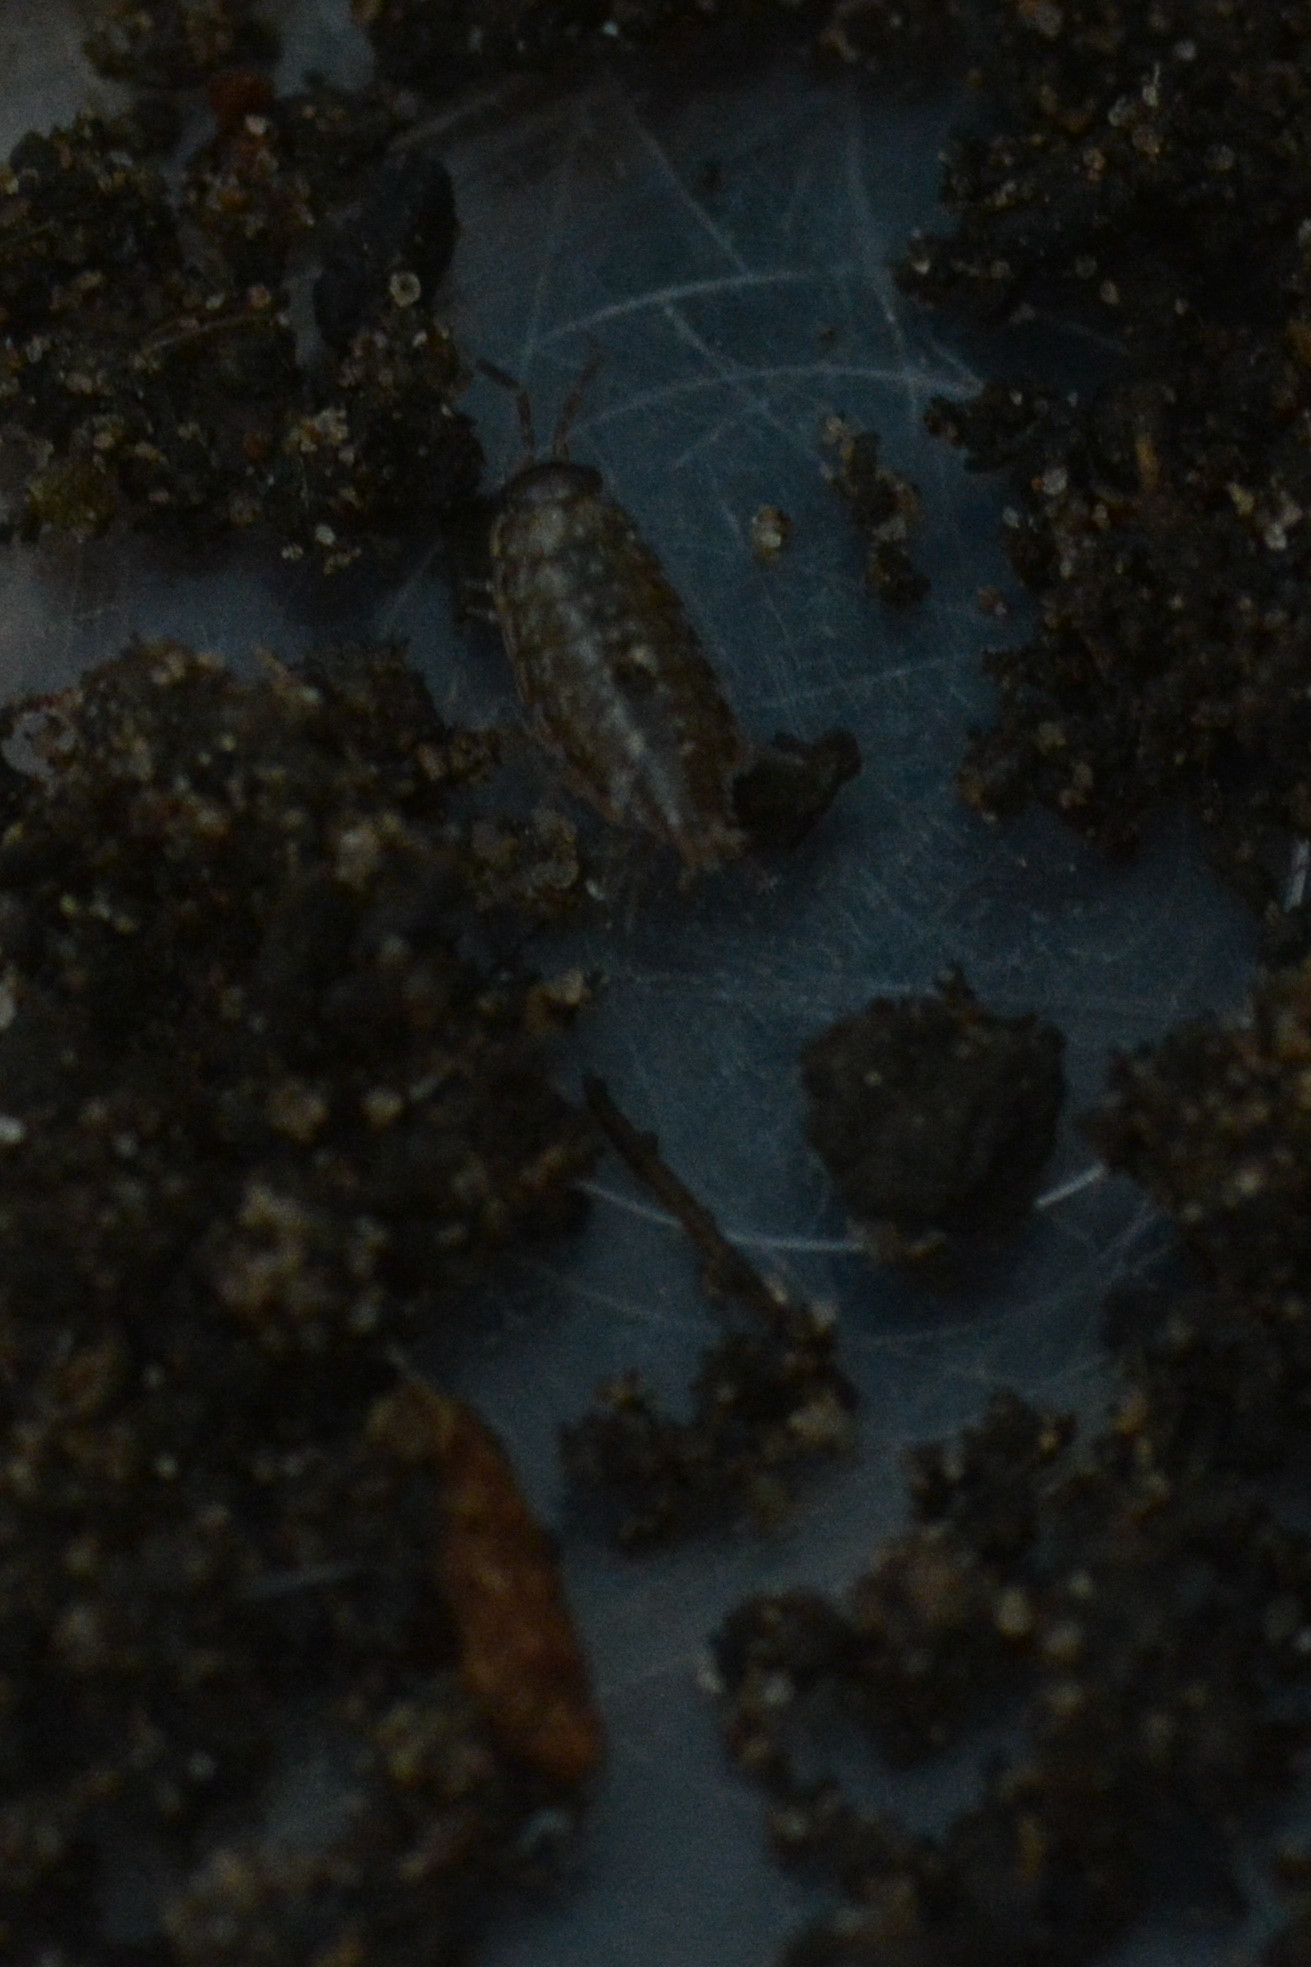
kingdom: Animalia
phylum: Arthropoda
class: Malacostraca
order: Isopoda
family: Philosciidae
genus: Philoscia
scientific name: Philoscia muscorum
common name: Common striped woodlouse
